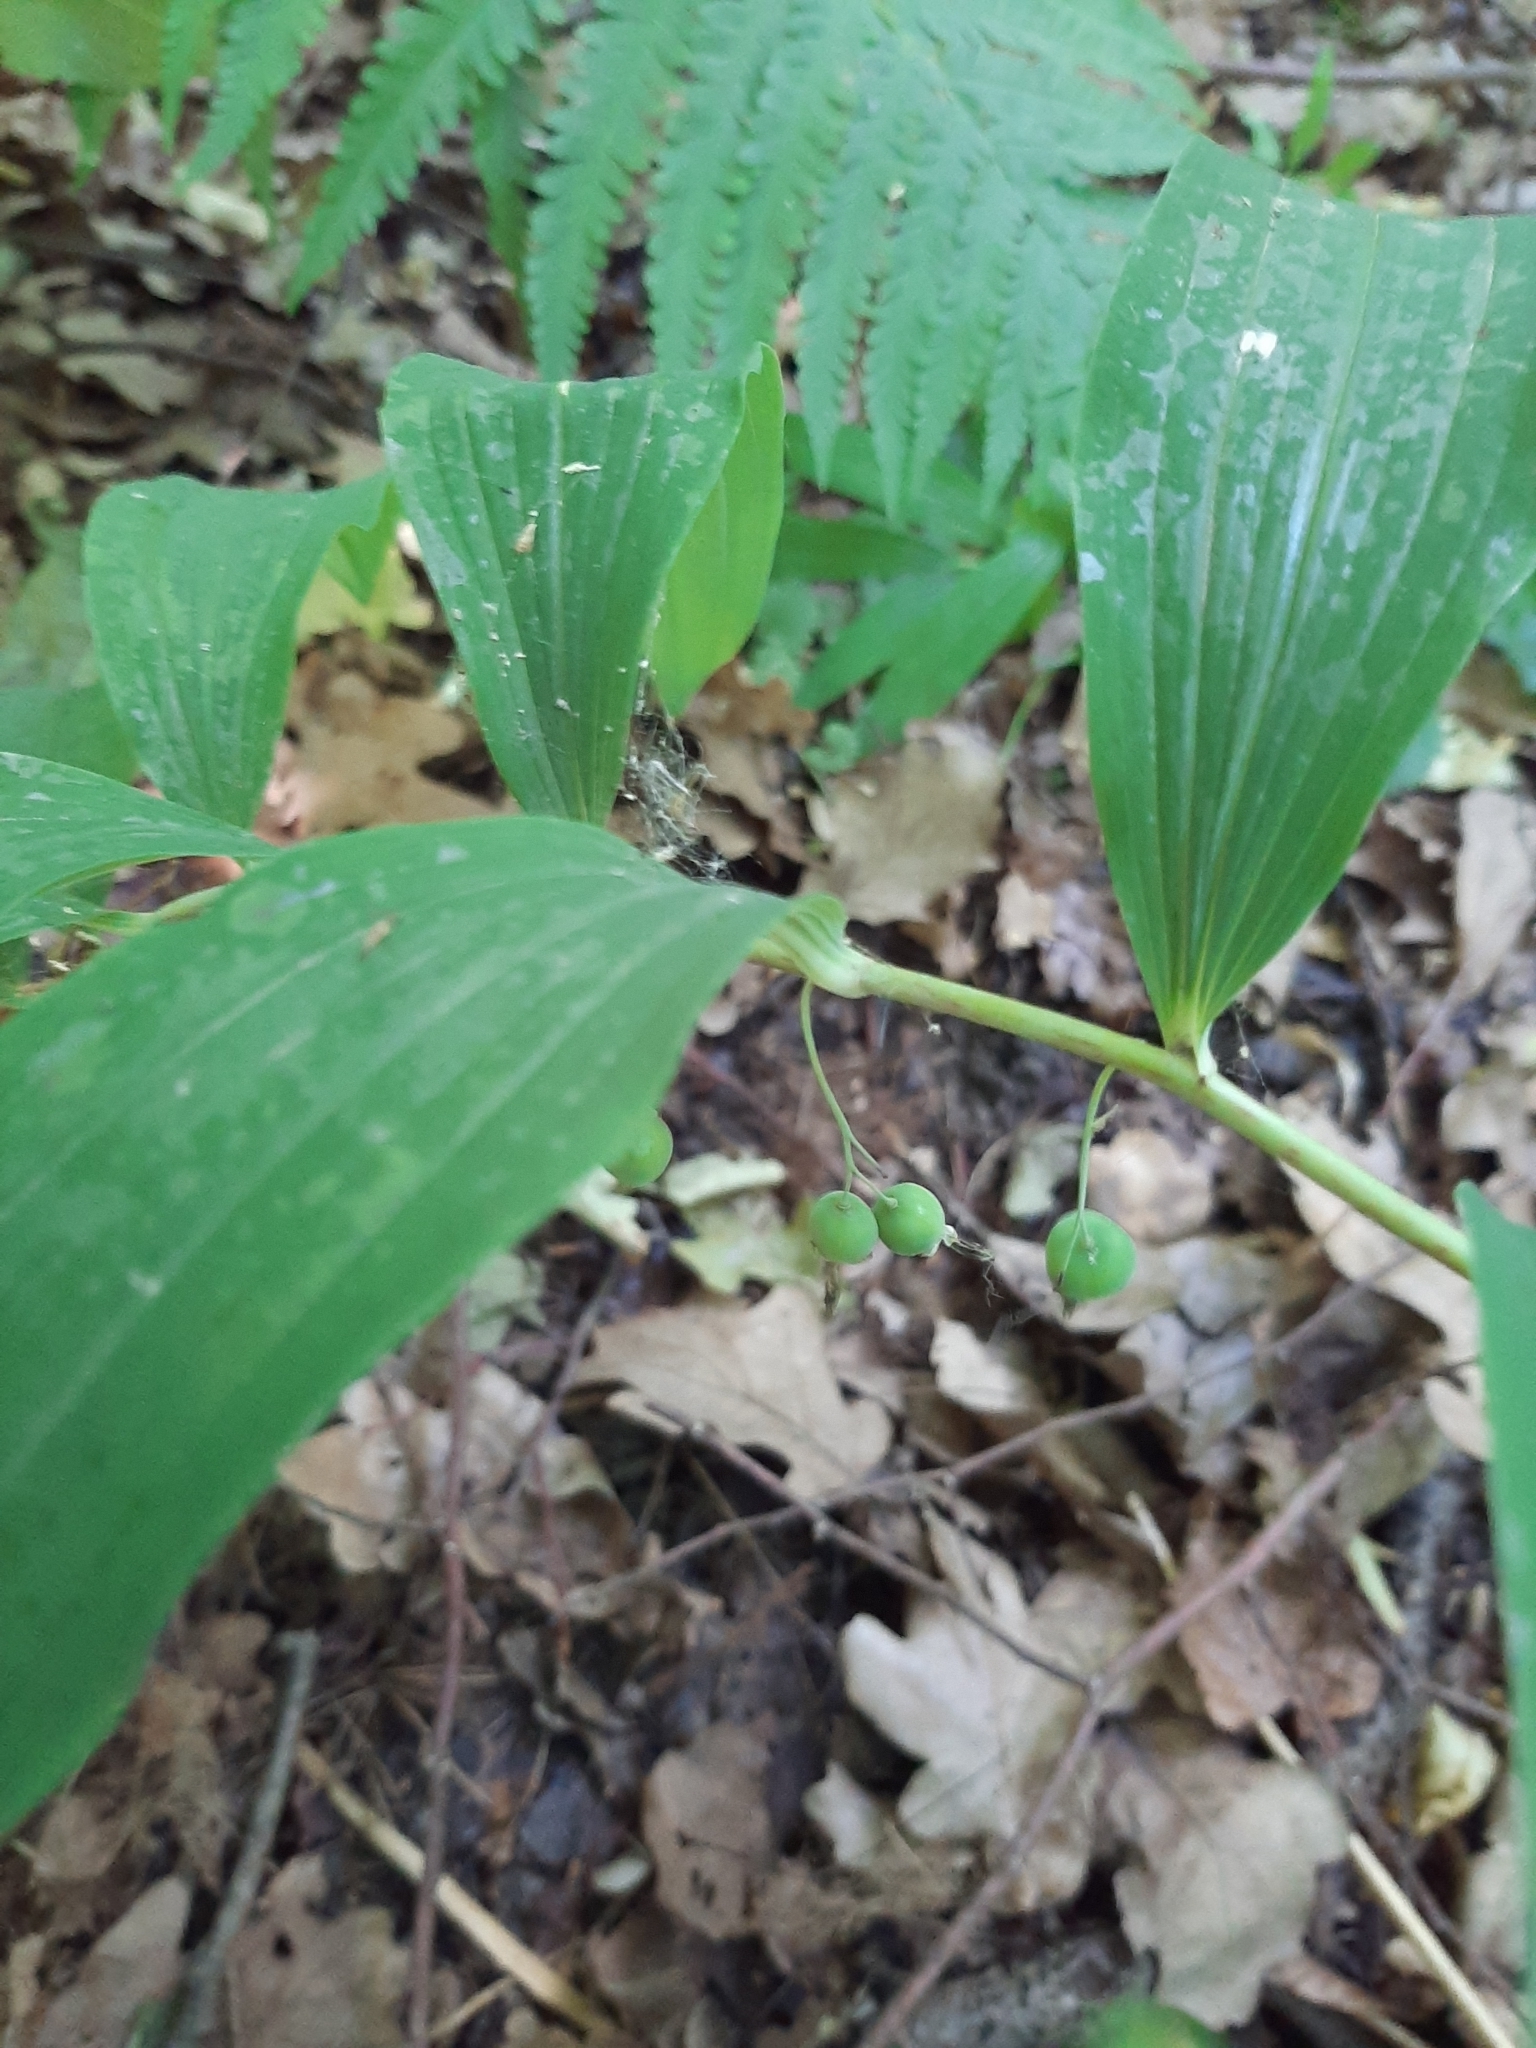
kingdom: Plantae
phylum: Tracheophyta
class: Liliopsida
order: Asparagales
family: Asparagaceae
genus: Polygonatum
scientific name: Polygonatum multiflorum
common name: Solomon's-seal
